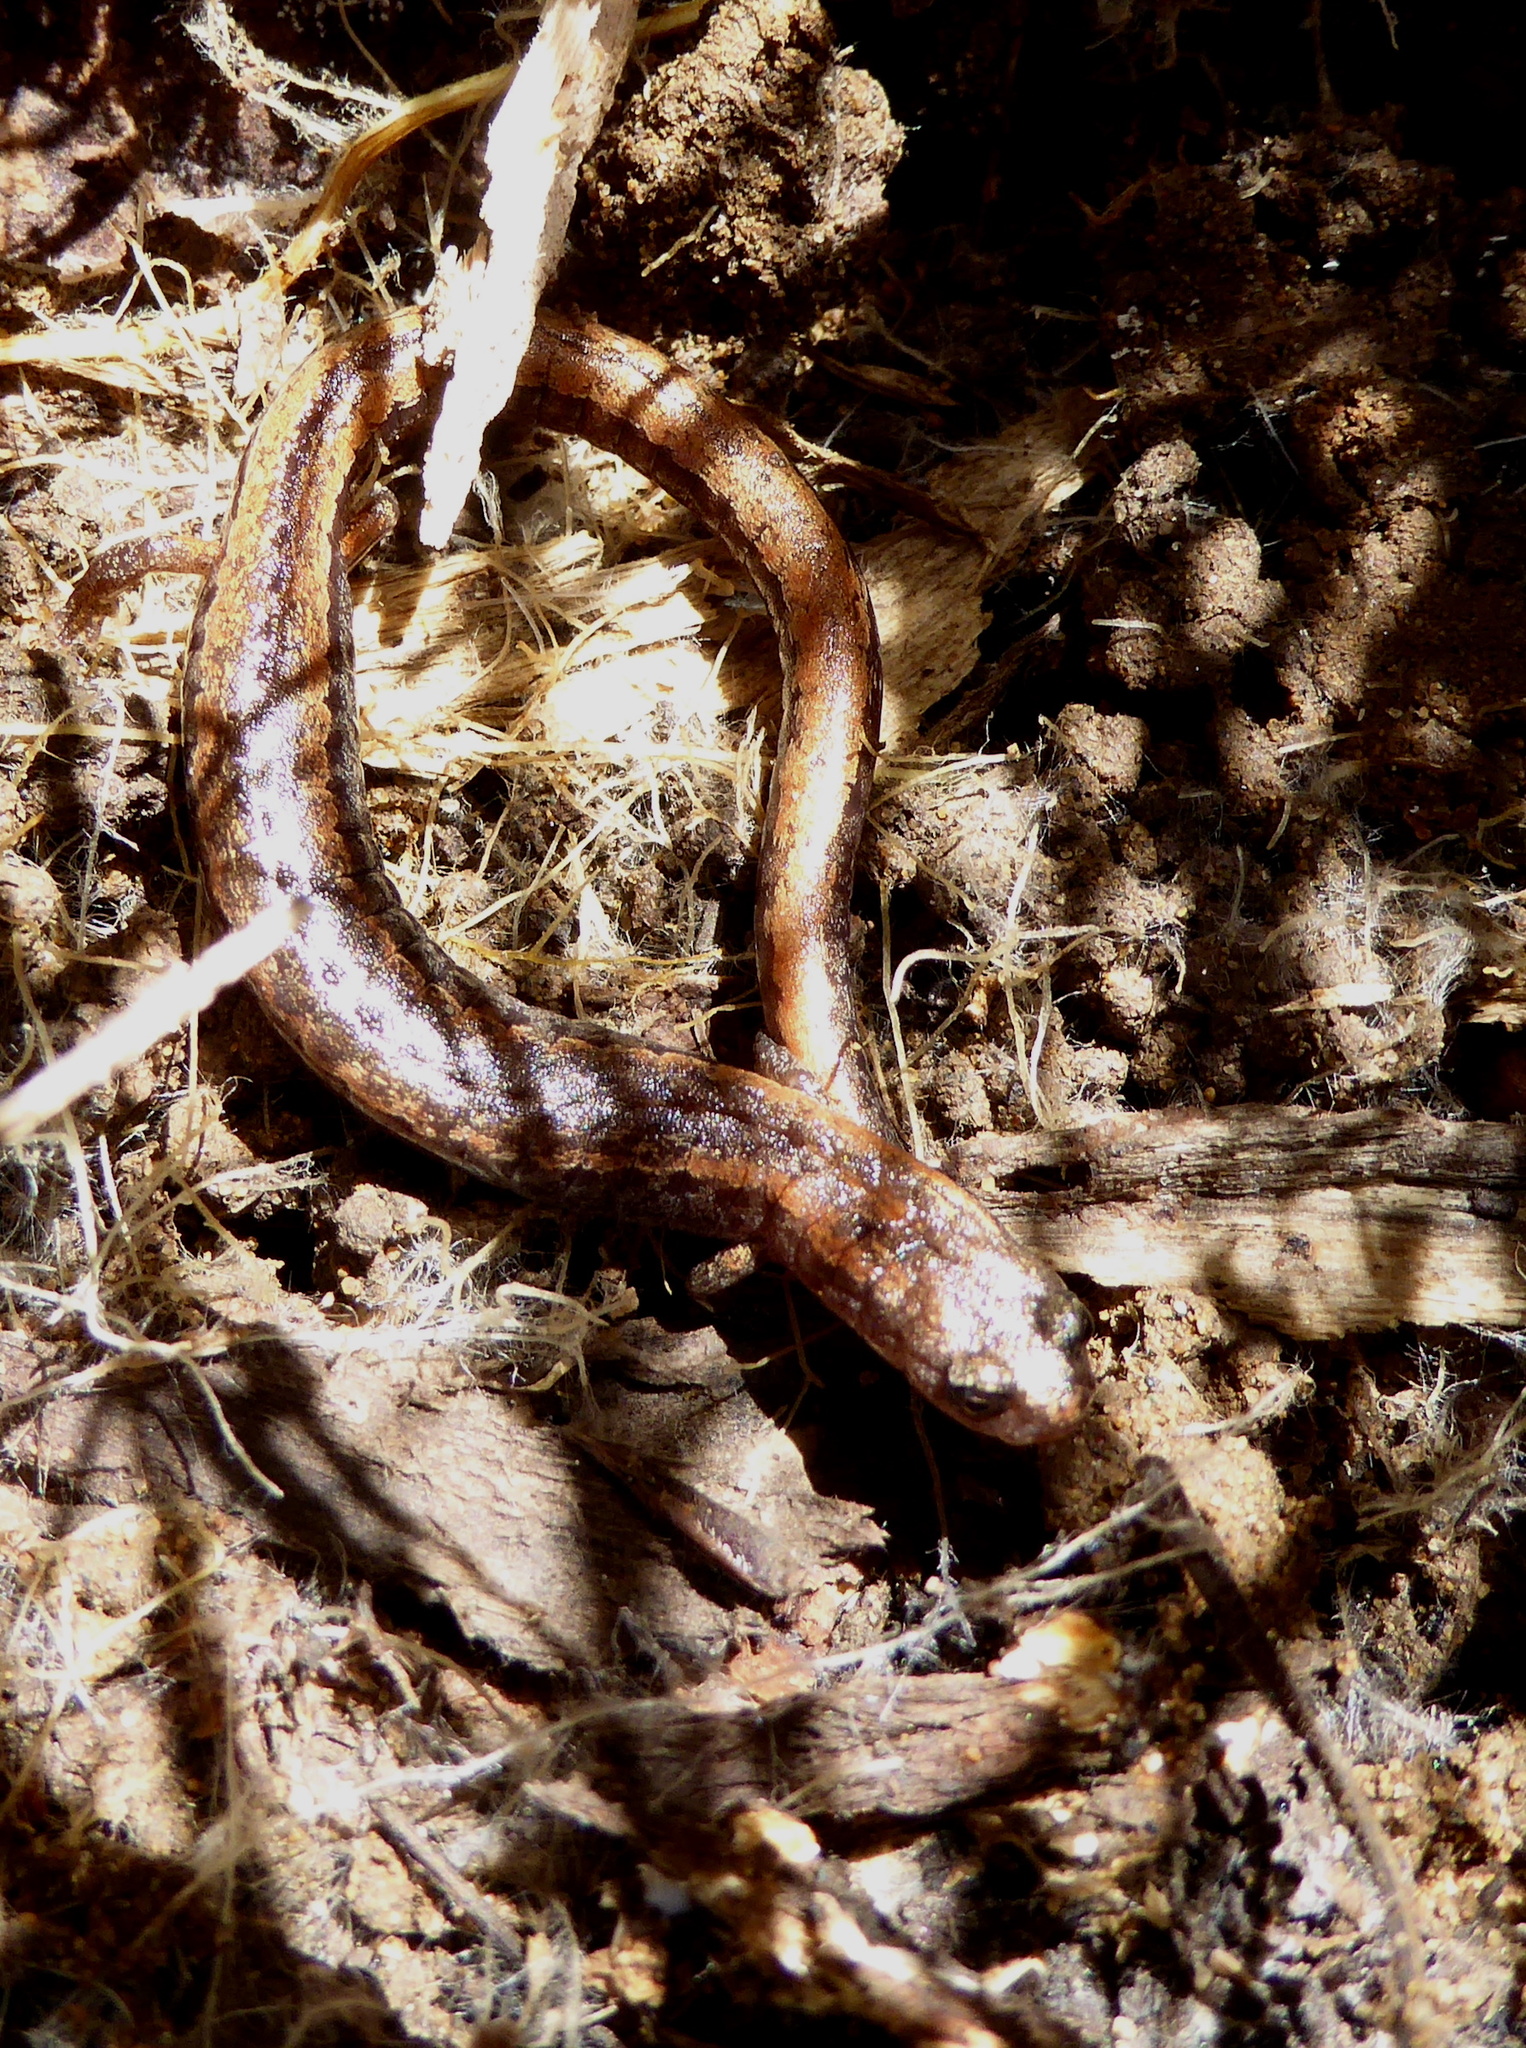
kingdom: Animalia
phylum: Chordata
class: Amphibia
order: Caudata
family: Plethodontidae
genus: Batrachoseps
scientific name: Batrachoseps attenuatus
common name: California slender salamander
